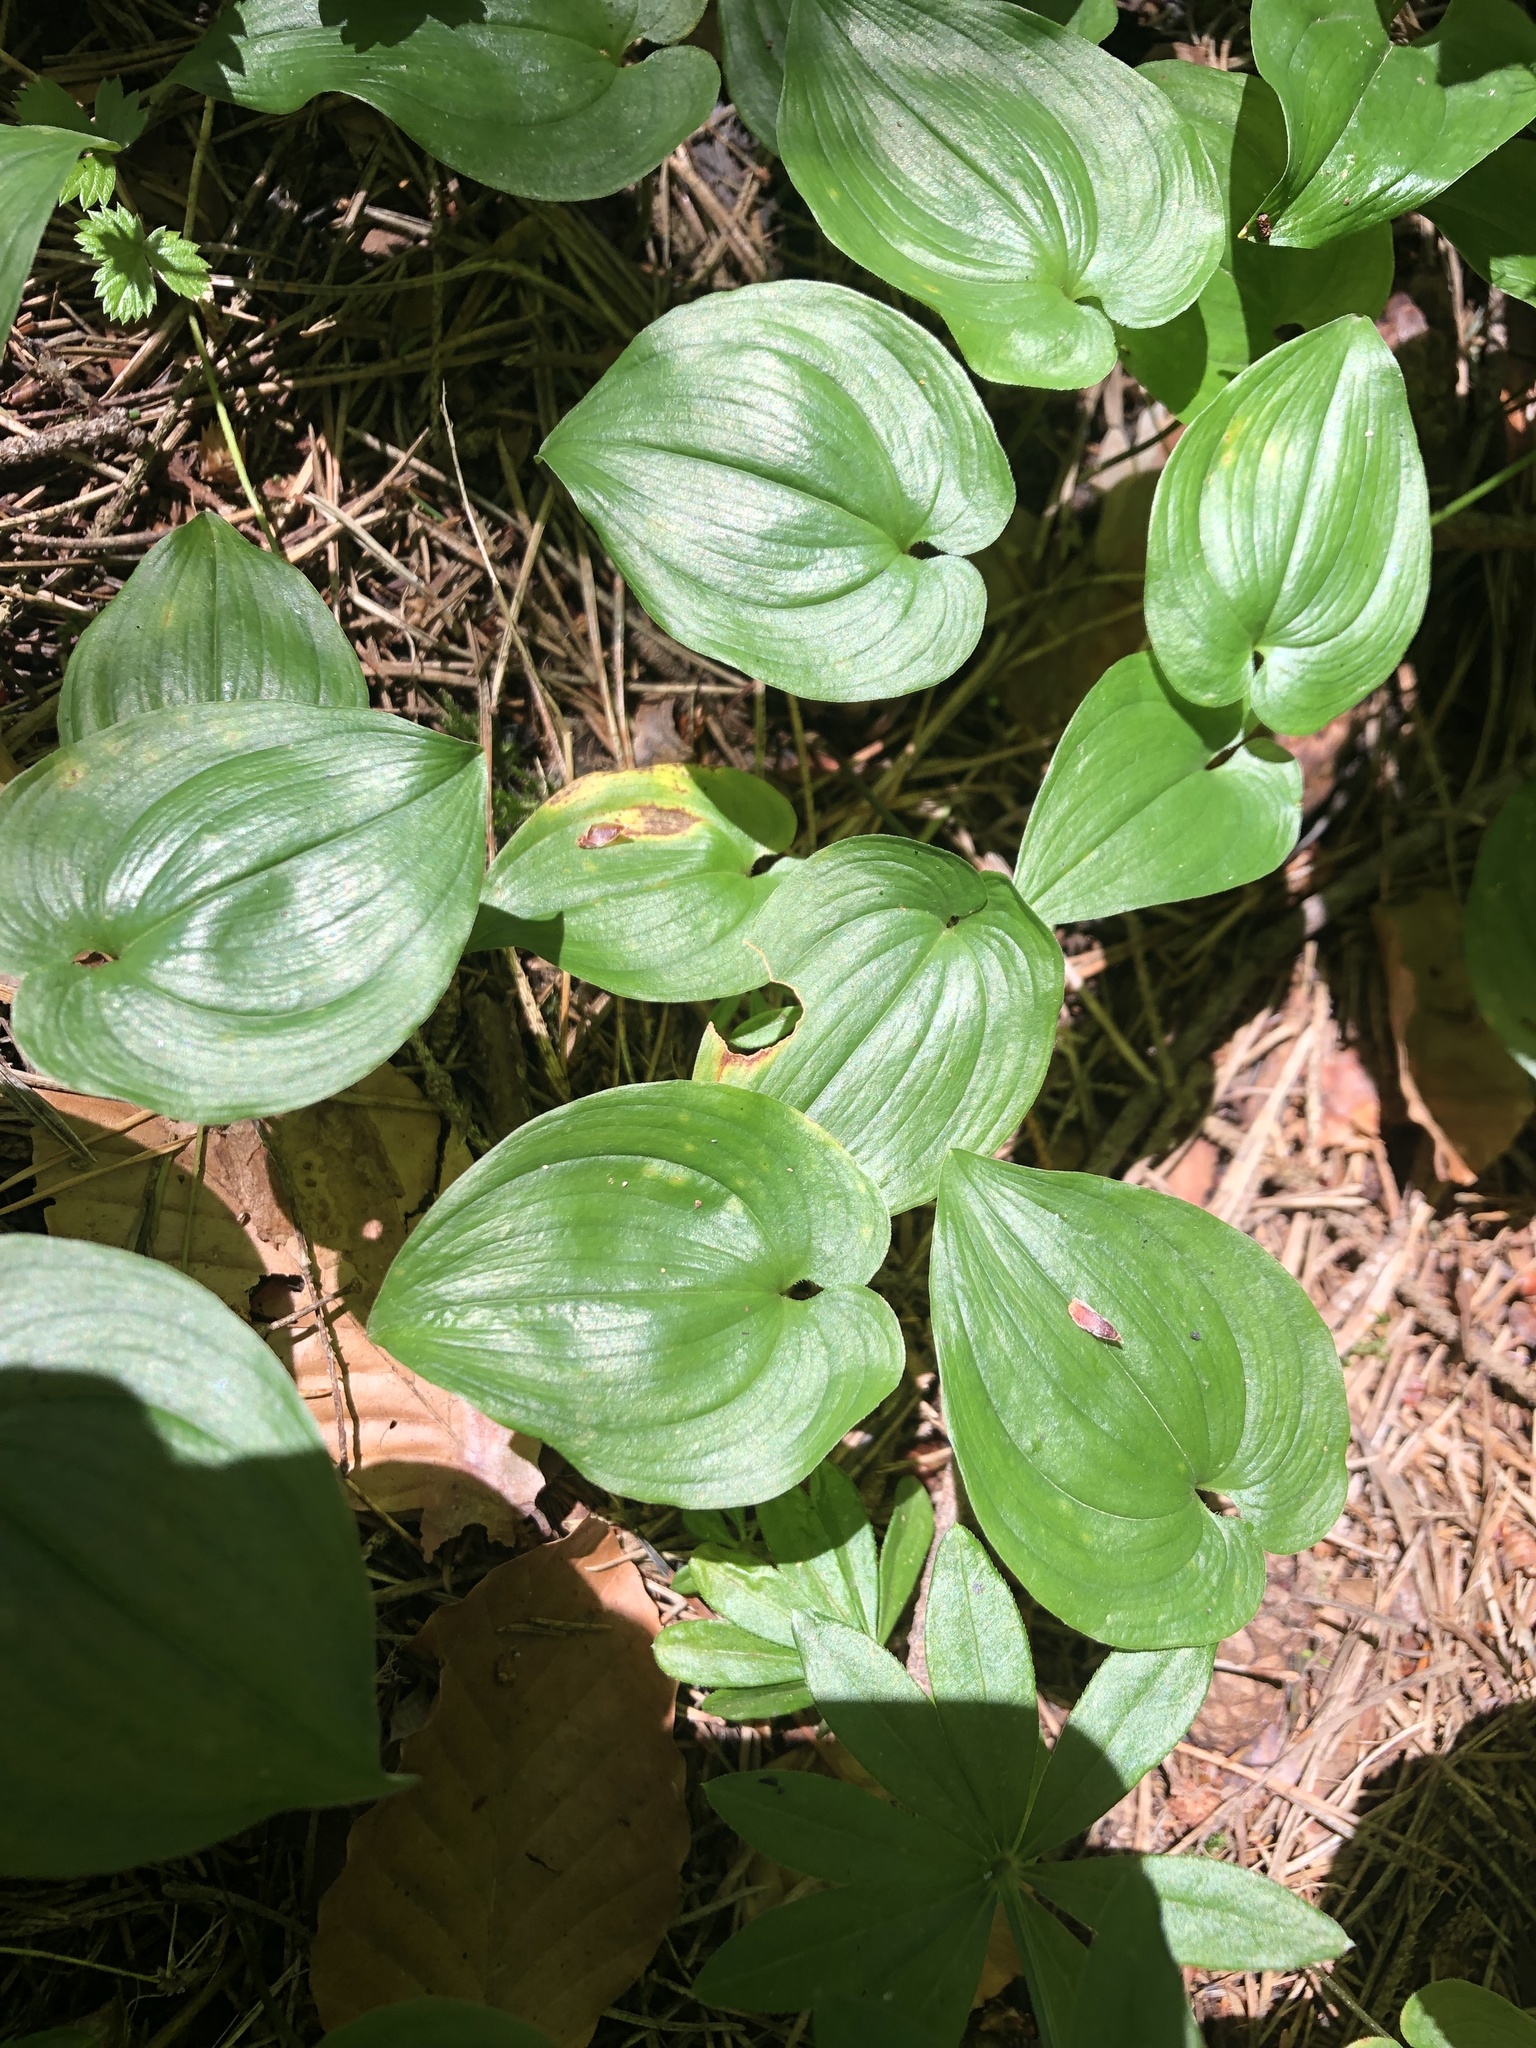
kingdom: Plantae
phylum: Tracheophyta
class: Liliopsida
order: Asparagales
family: Asparagaceae
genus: Maianthemum
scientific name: Maianthemum bifolium
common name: May lily
